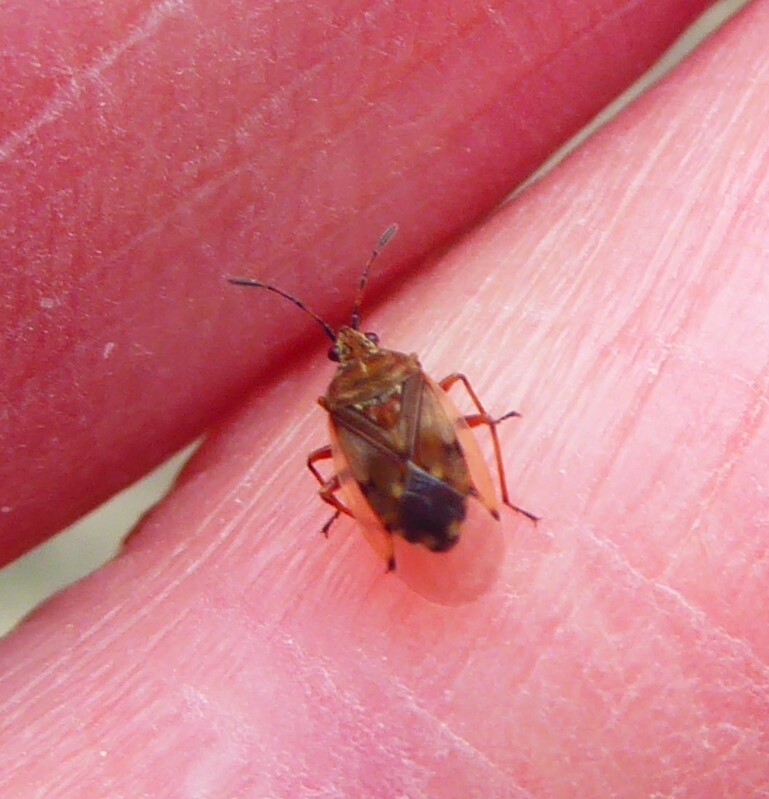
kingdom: Animalia
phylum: Arthropoda
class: Insecta
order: Hemiptera
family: Lygaeidae
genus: Kleidocerys
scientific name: Kleidocerys resedae
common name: Birch catkin bug
